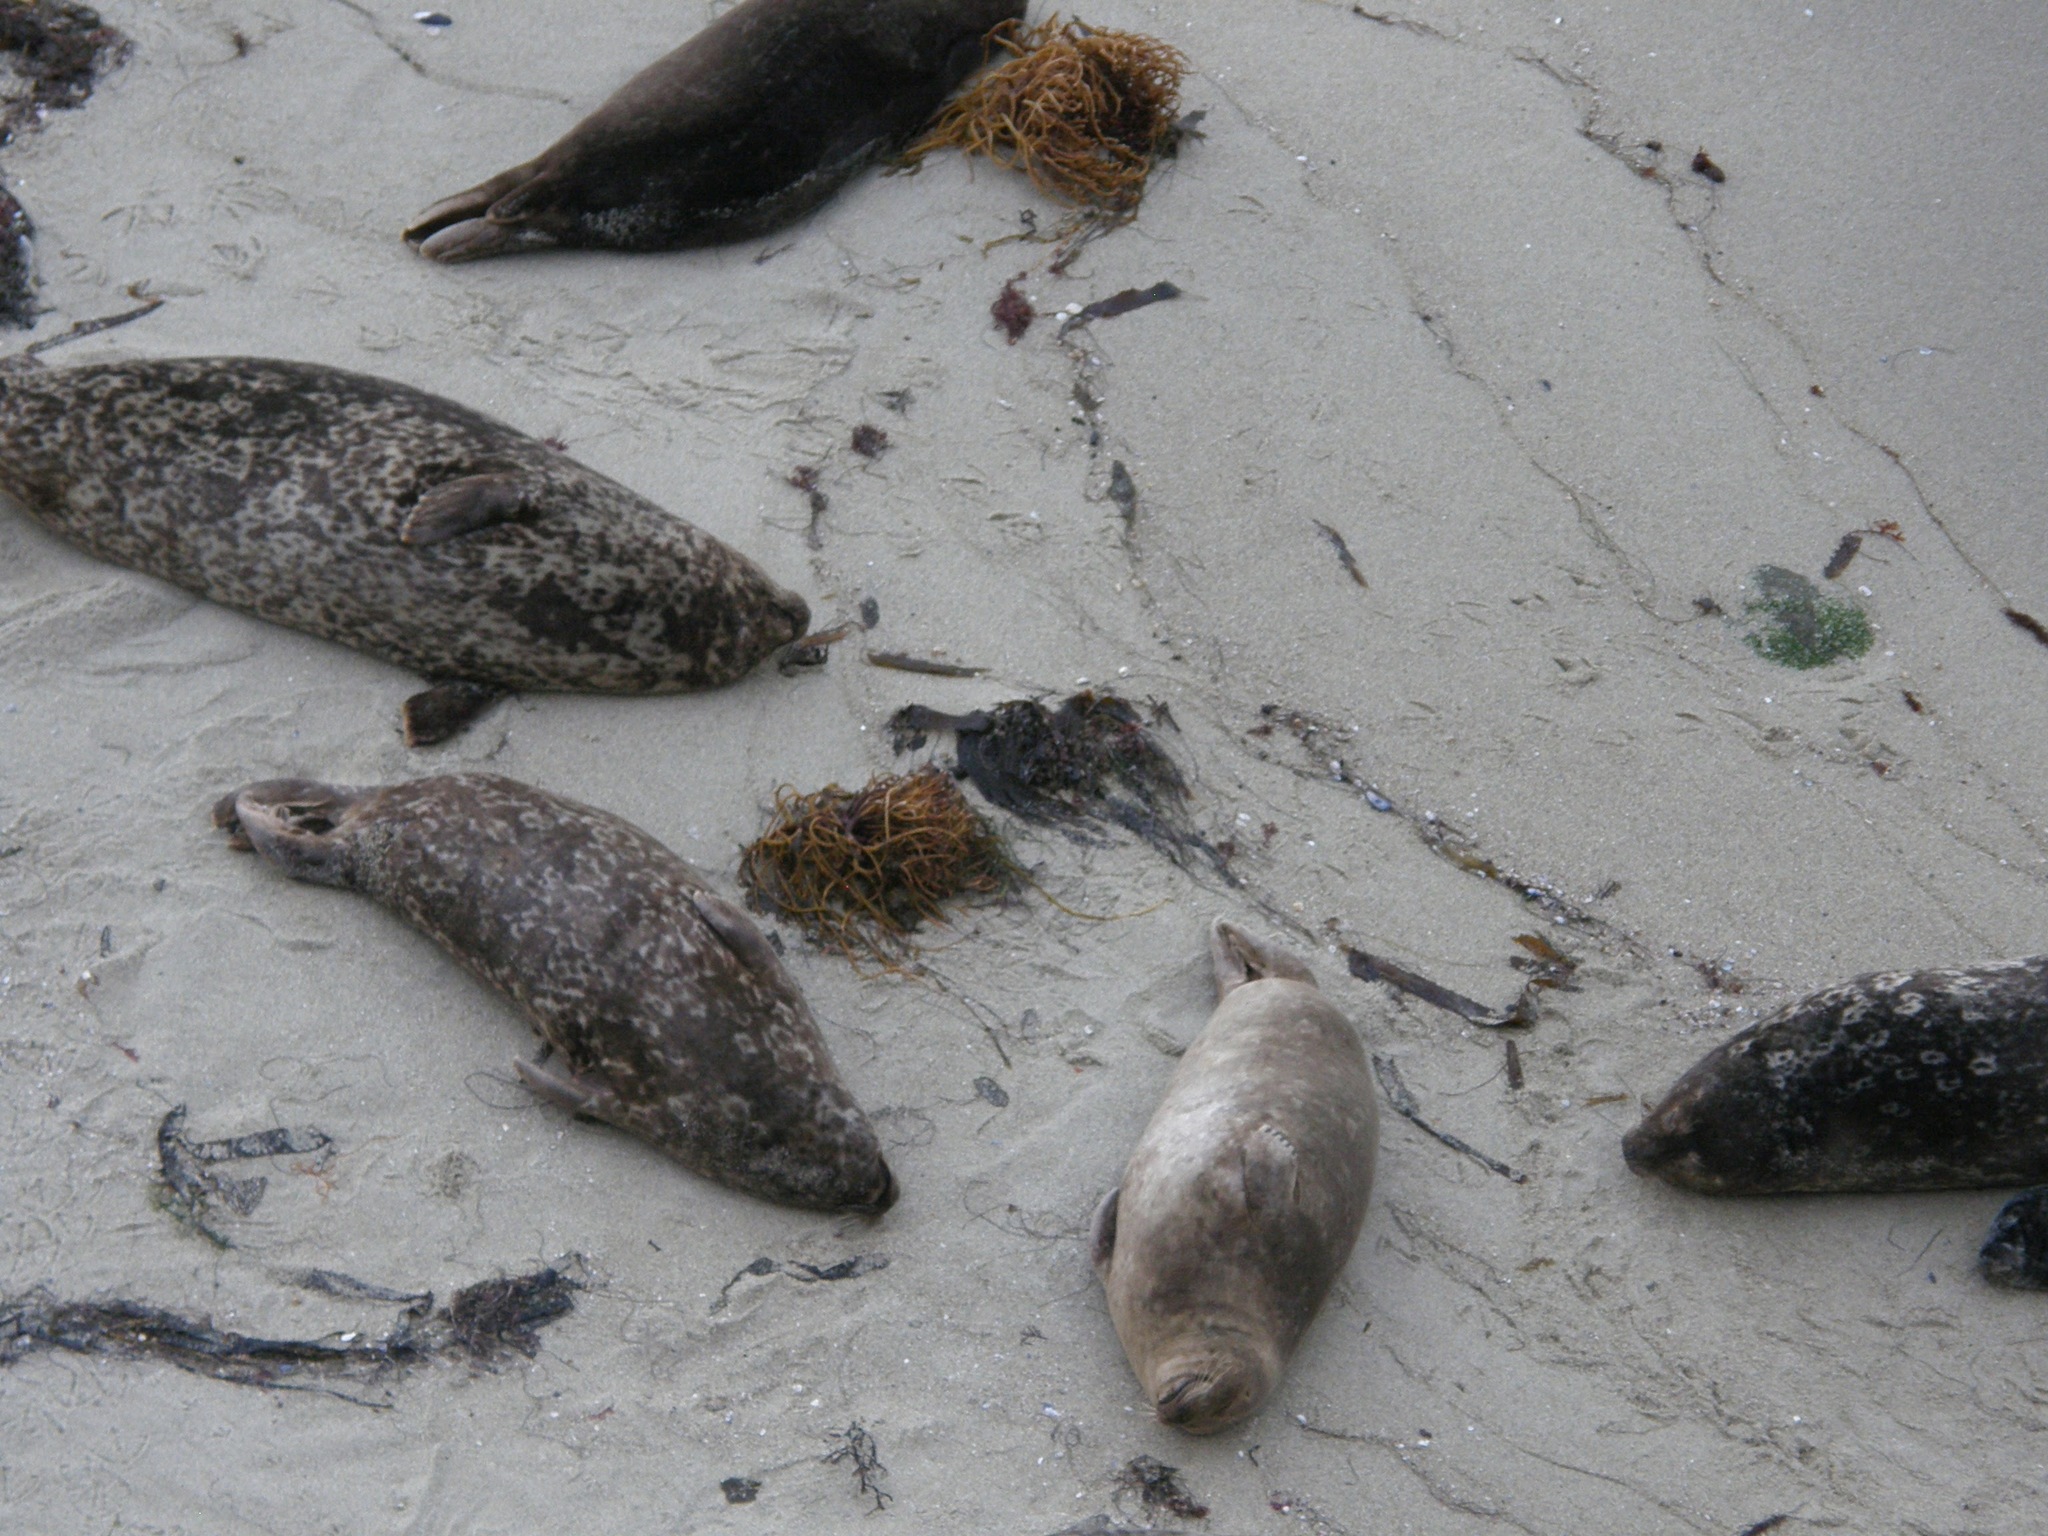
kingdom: Animalia
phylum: Chordata
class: Mammalia
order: Carnivora
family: Phocidae
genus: Phoca
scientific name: Phoca vitulina
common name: Harbor seal
